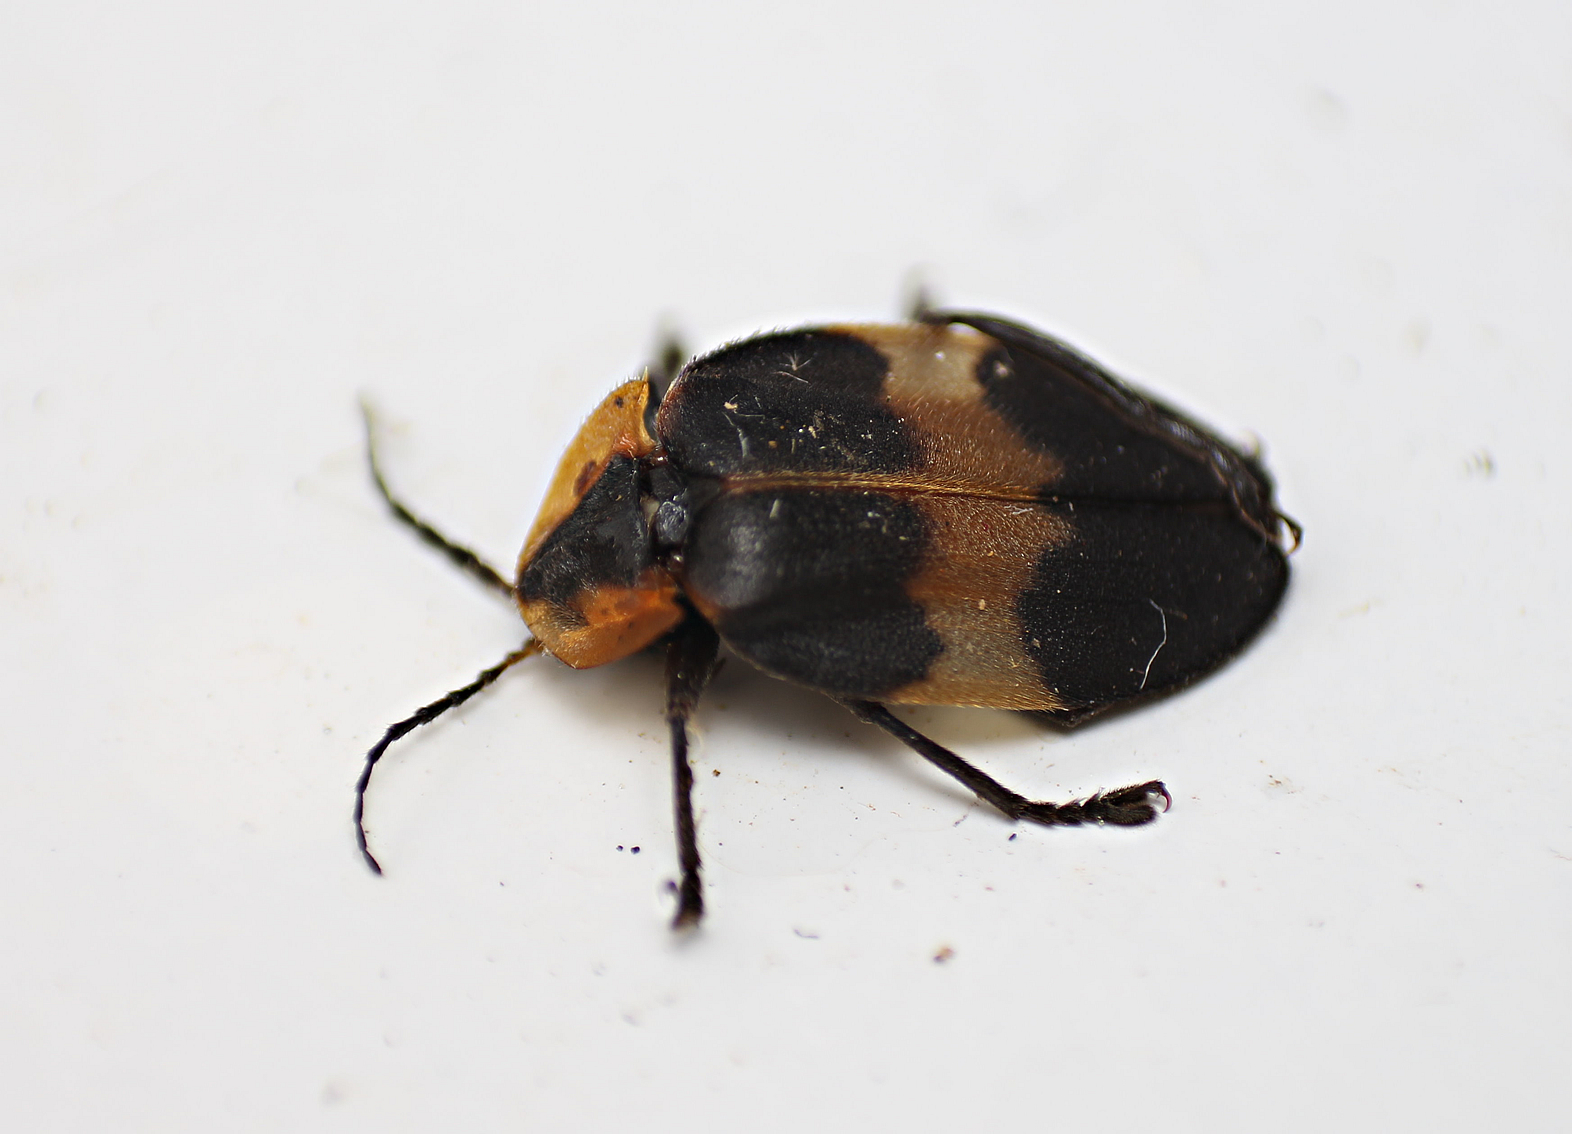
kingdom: Animalia
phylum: Arthropoda
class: Insecta
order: Coleoptera
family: Lampyridae
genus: Pyrogaster
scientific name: Pyrogaster telephorinus
